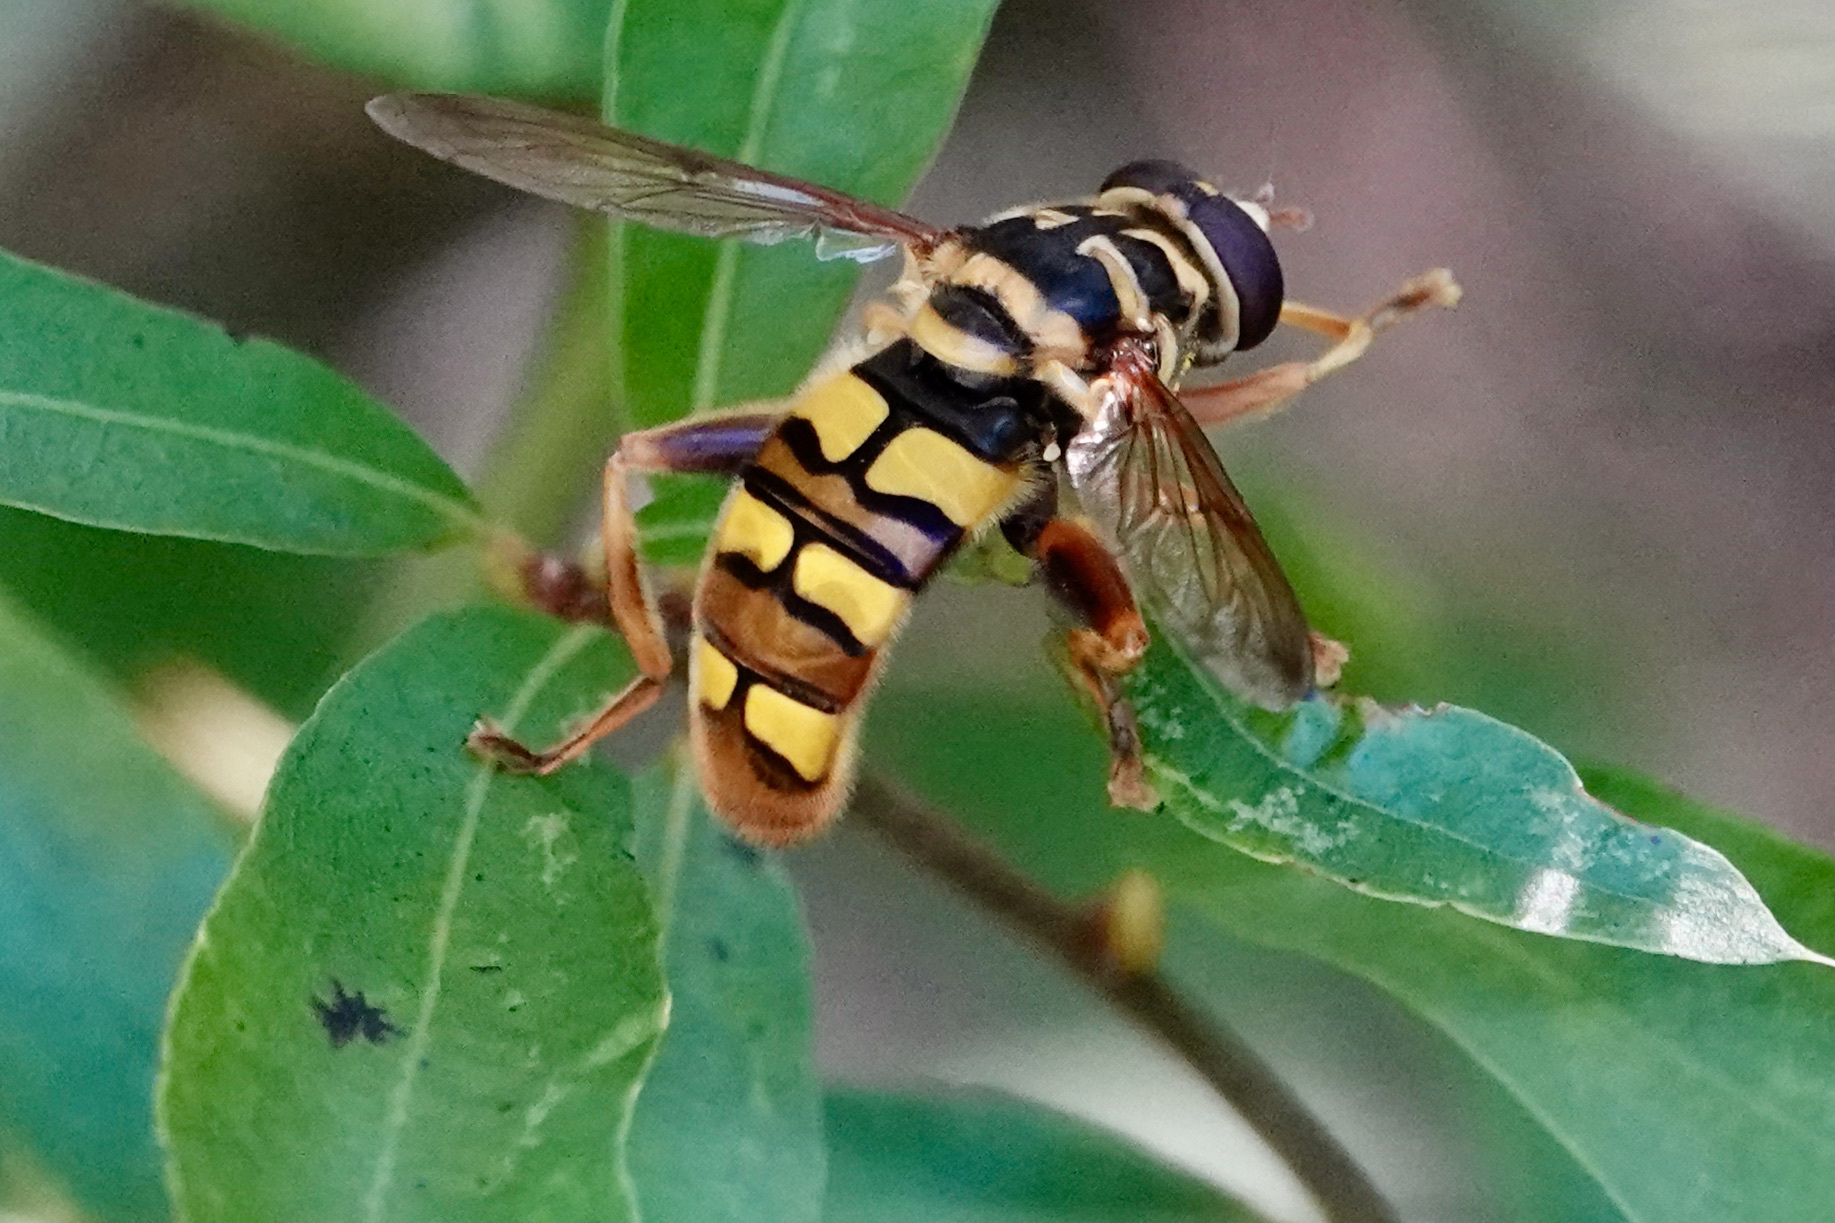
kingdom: Animalia
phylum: Arthropoda
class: Insecta
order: Diptera
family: Syrphidae
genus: Milesia
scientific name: Milesia virginiensis
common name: Virginia giant
